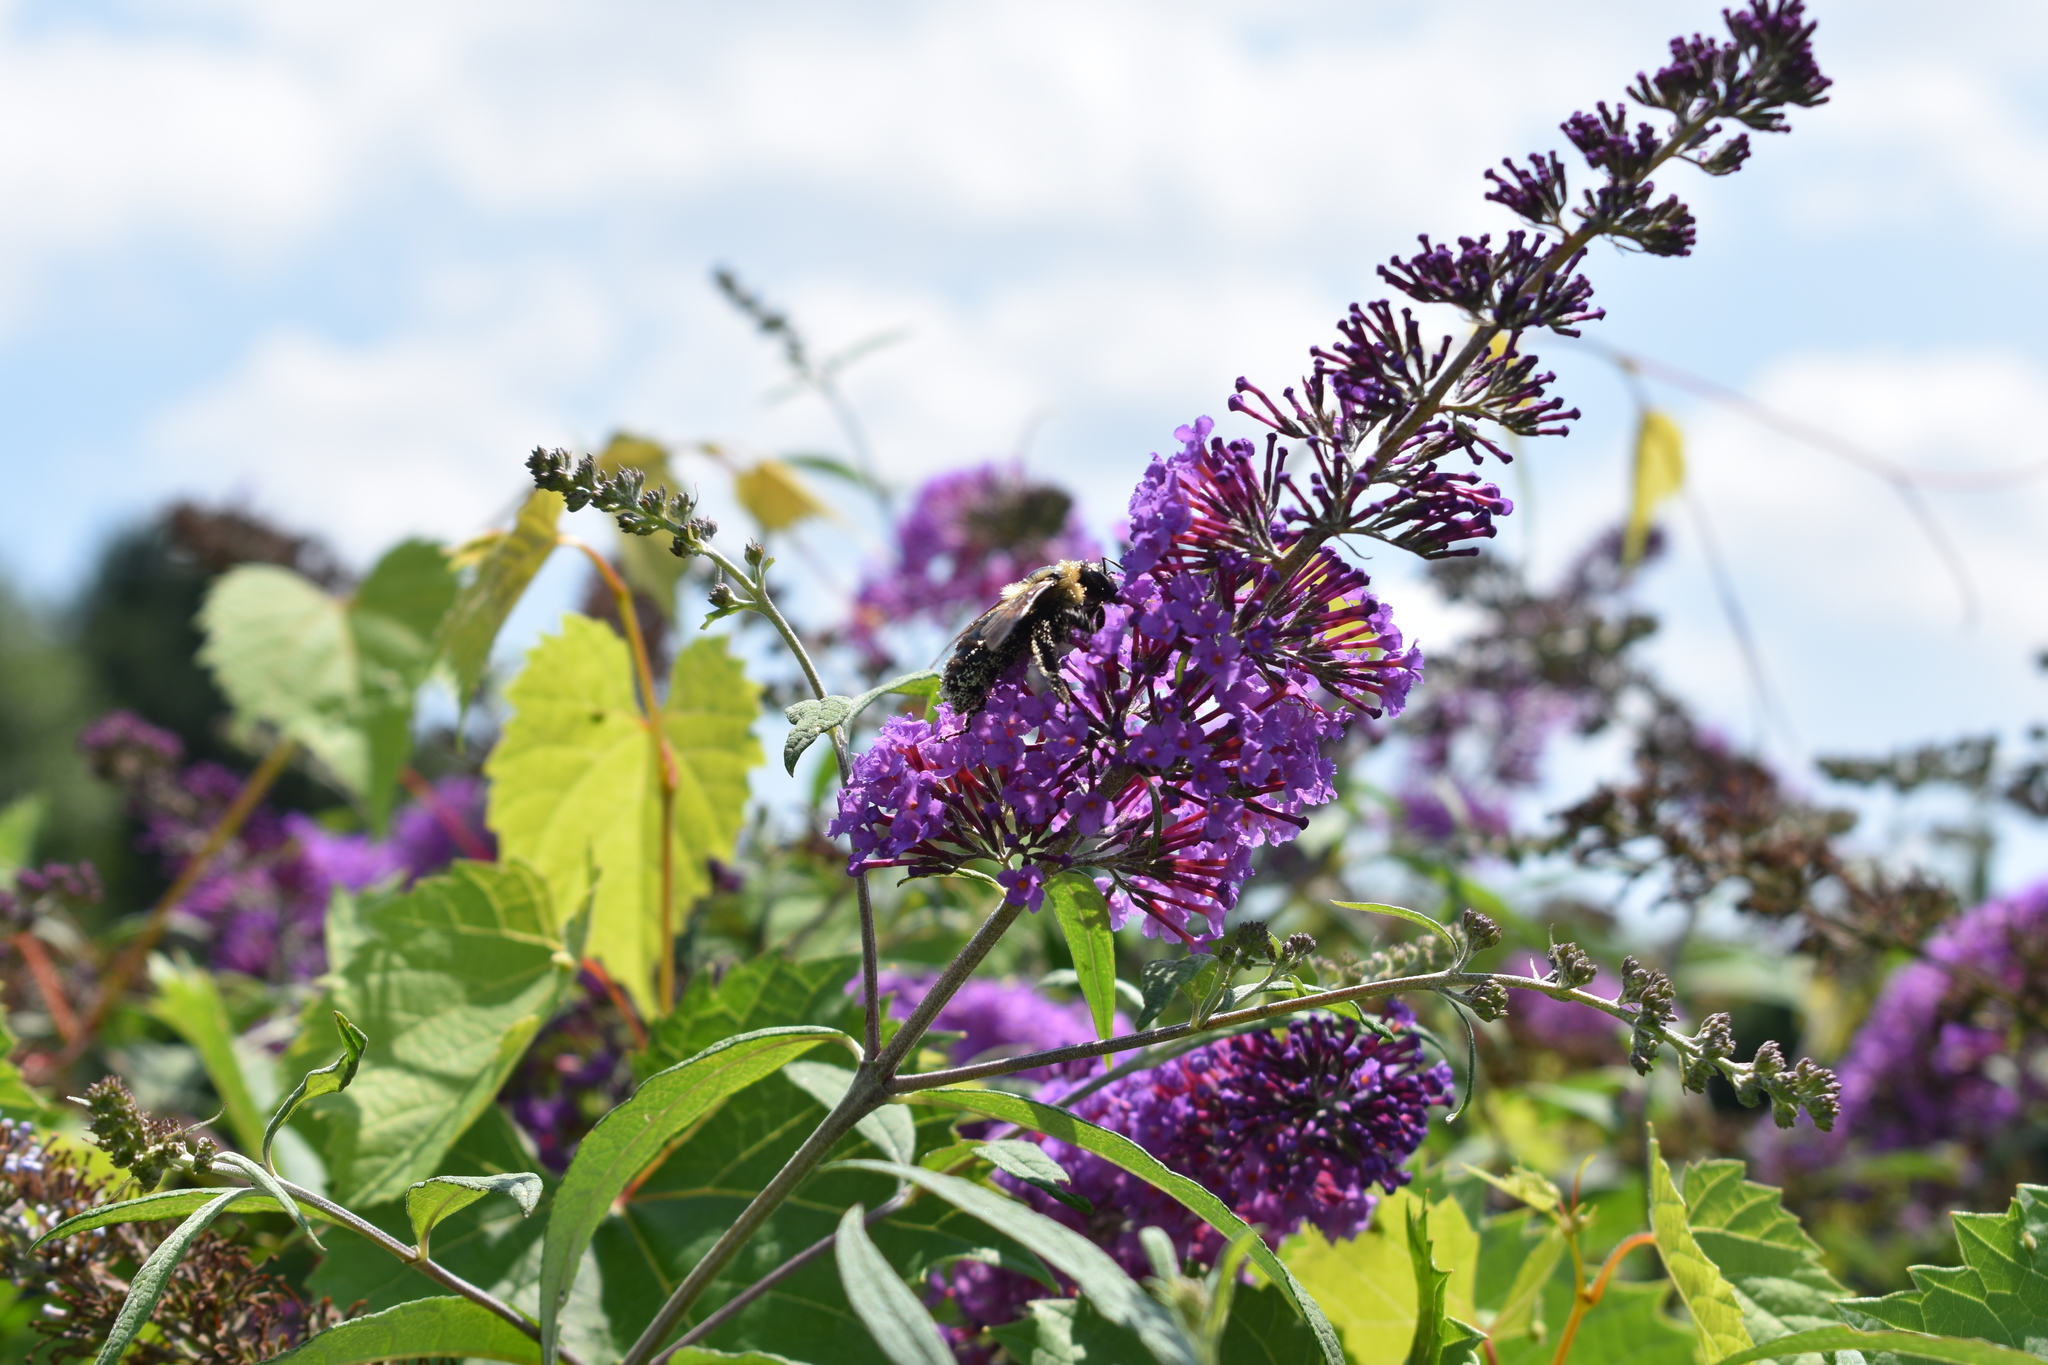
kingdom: Animalia
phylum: Arthropoda
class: Insecta
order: Hymenoptera
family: Apidae
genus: Xylocopa
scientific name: Xylocopa virginica
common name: Carpenter bee
